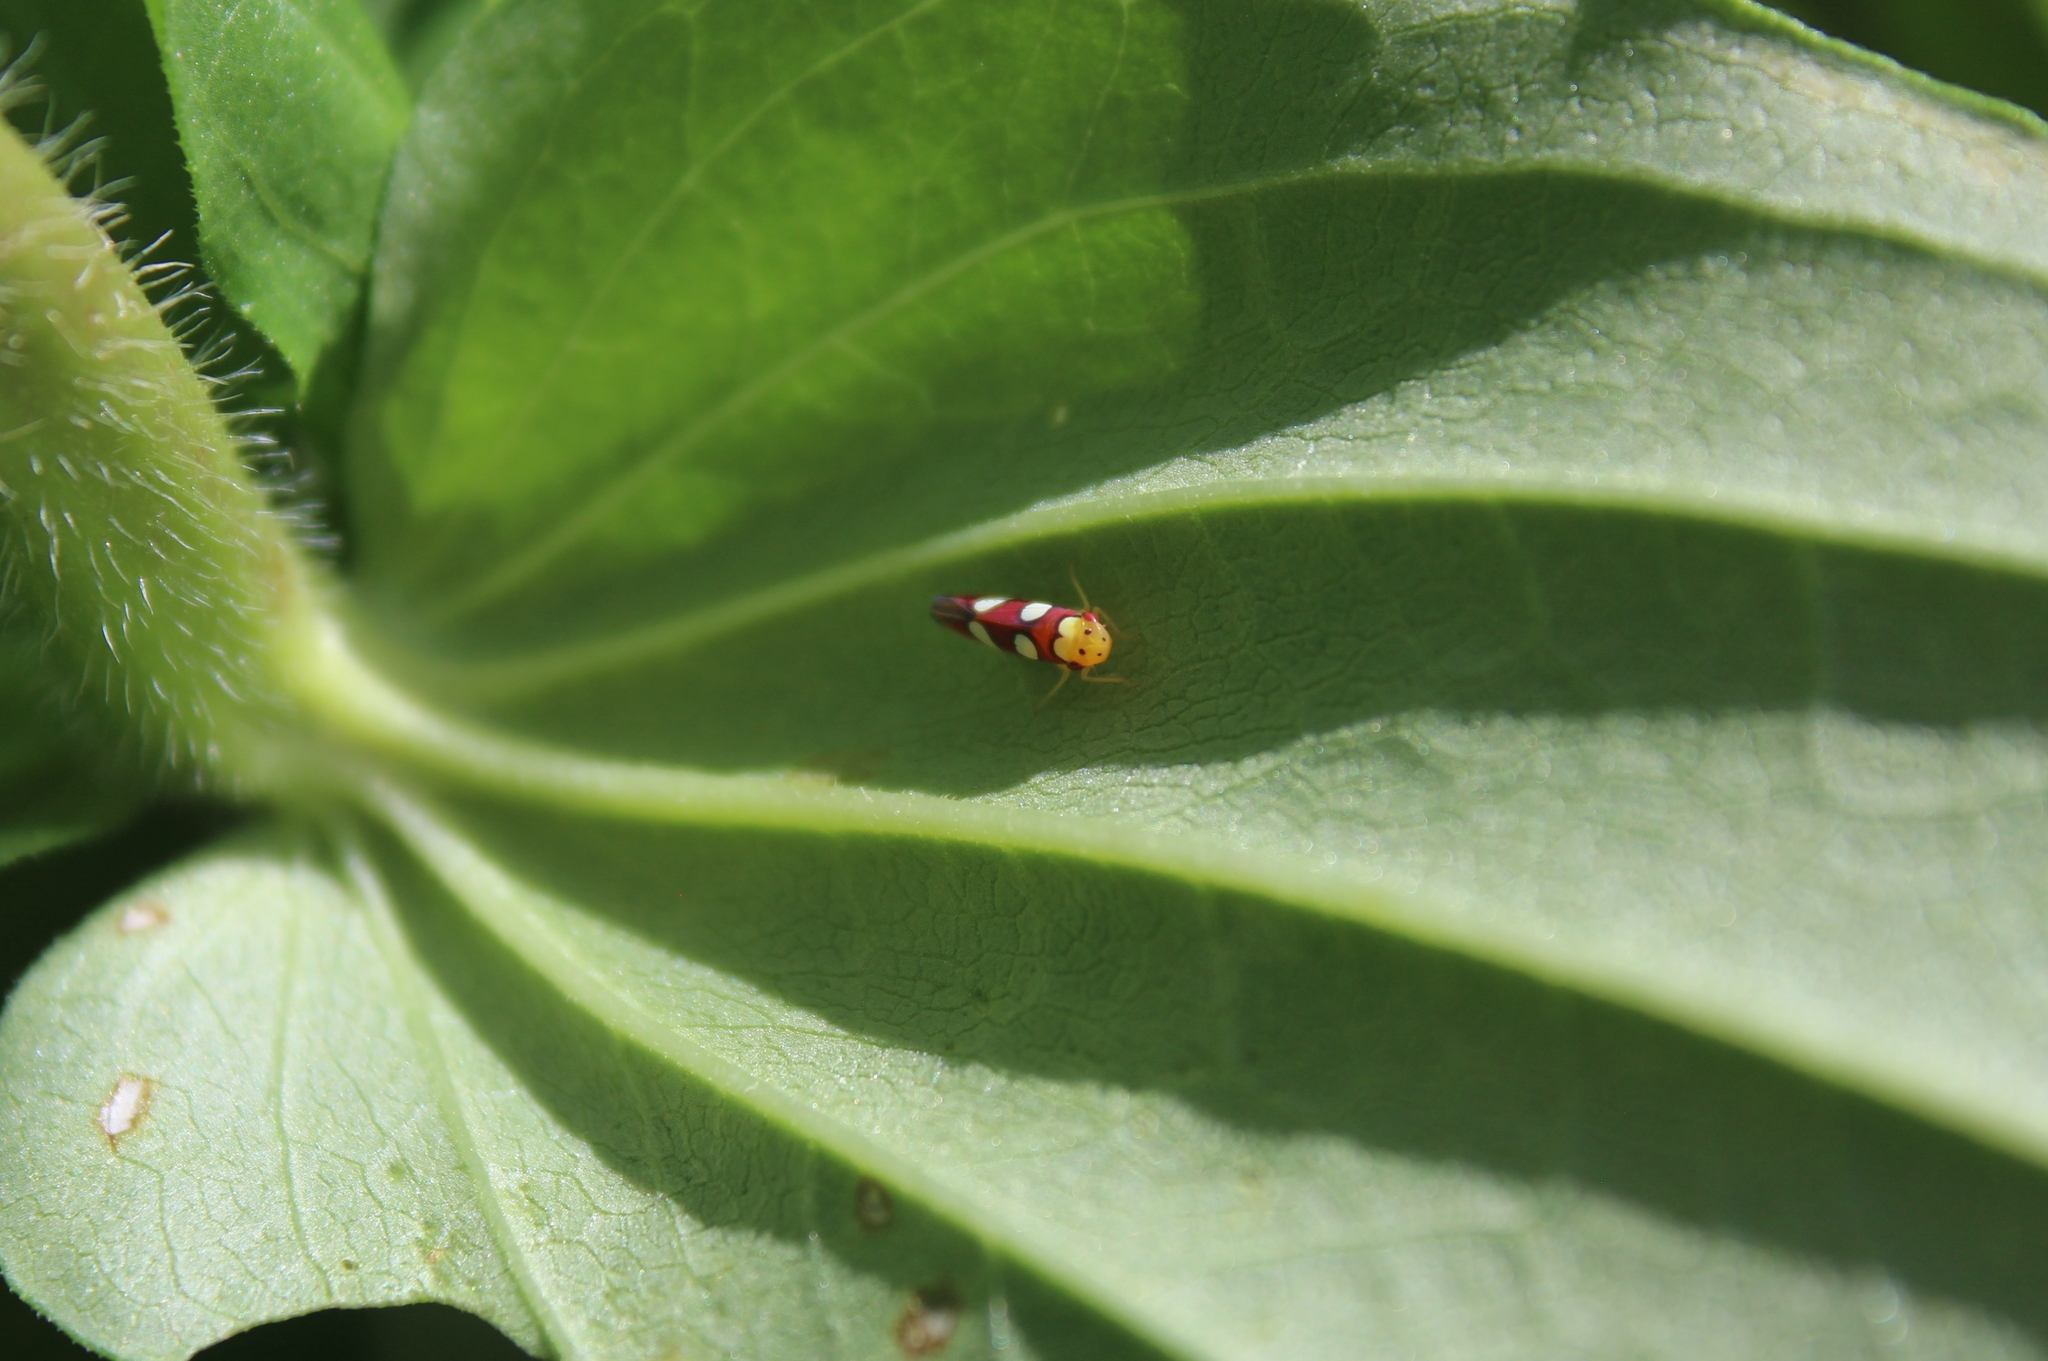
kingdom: Animalia
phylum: Arthropoda
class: Insecta
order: Hemiptera
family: Cicadellidae
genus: Erythrogonia
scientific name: Erythrogonia laudata
